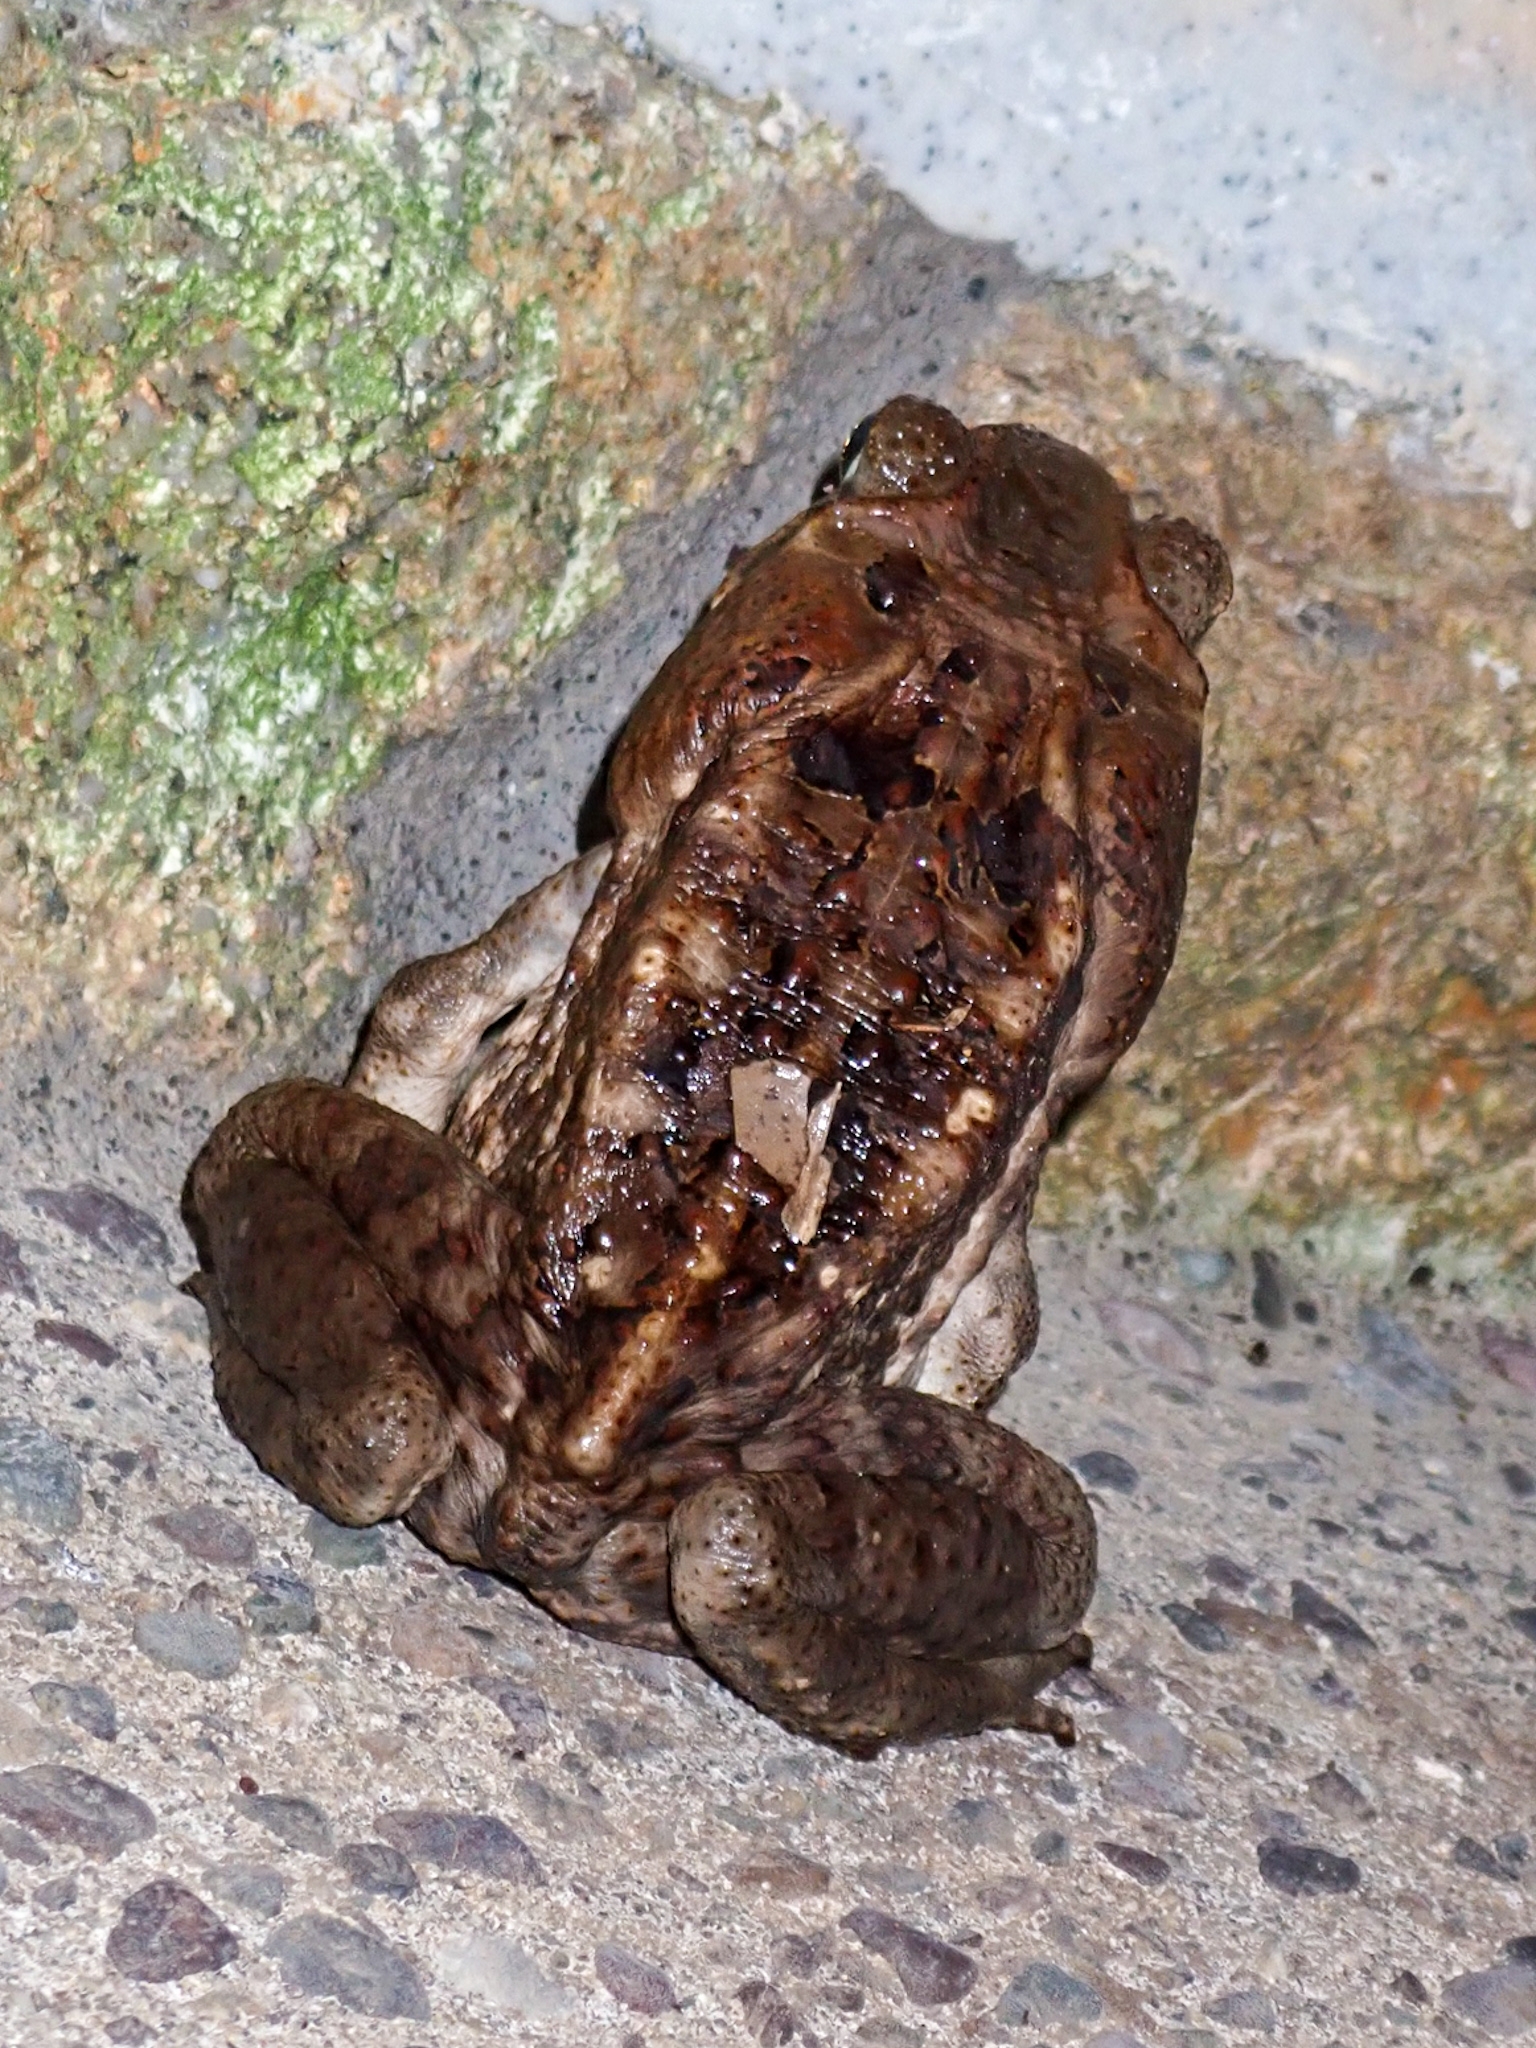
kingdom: Animalia
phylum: Chordata
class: Amphibia
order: Anura
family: Bufonidae
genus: Rhinella
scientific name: Rhinella horribilis
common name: Mesoamerican cane toad
